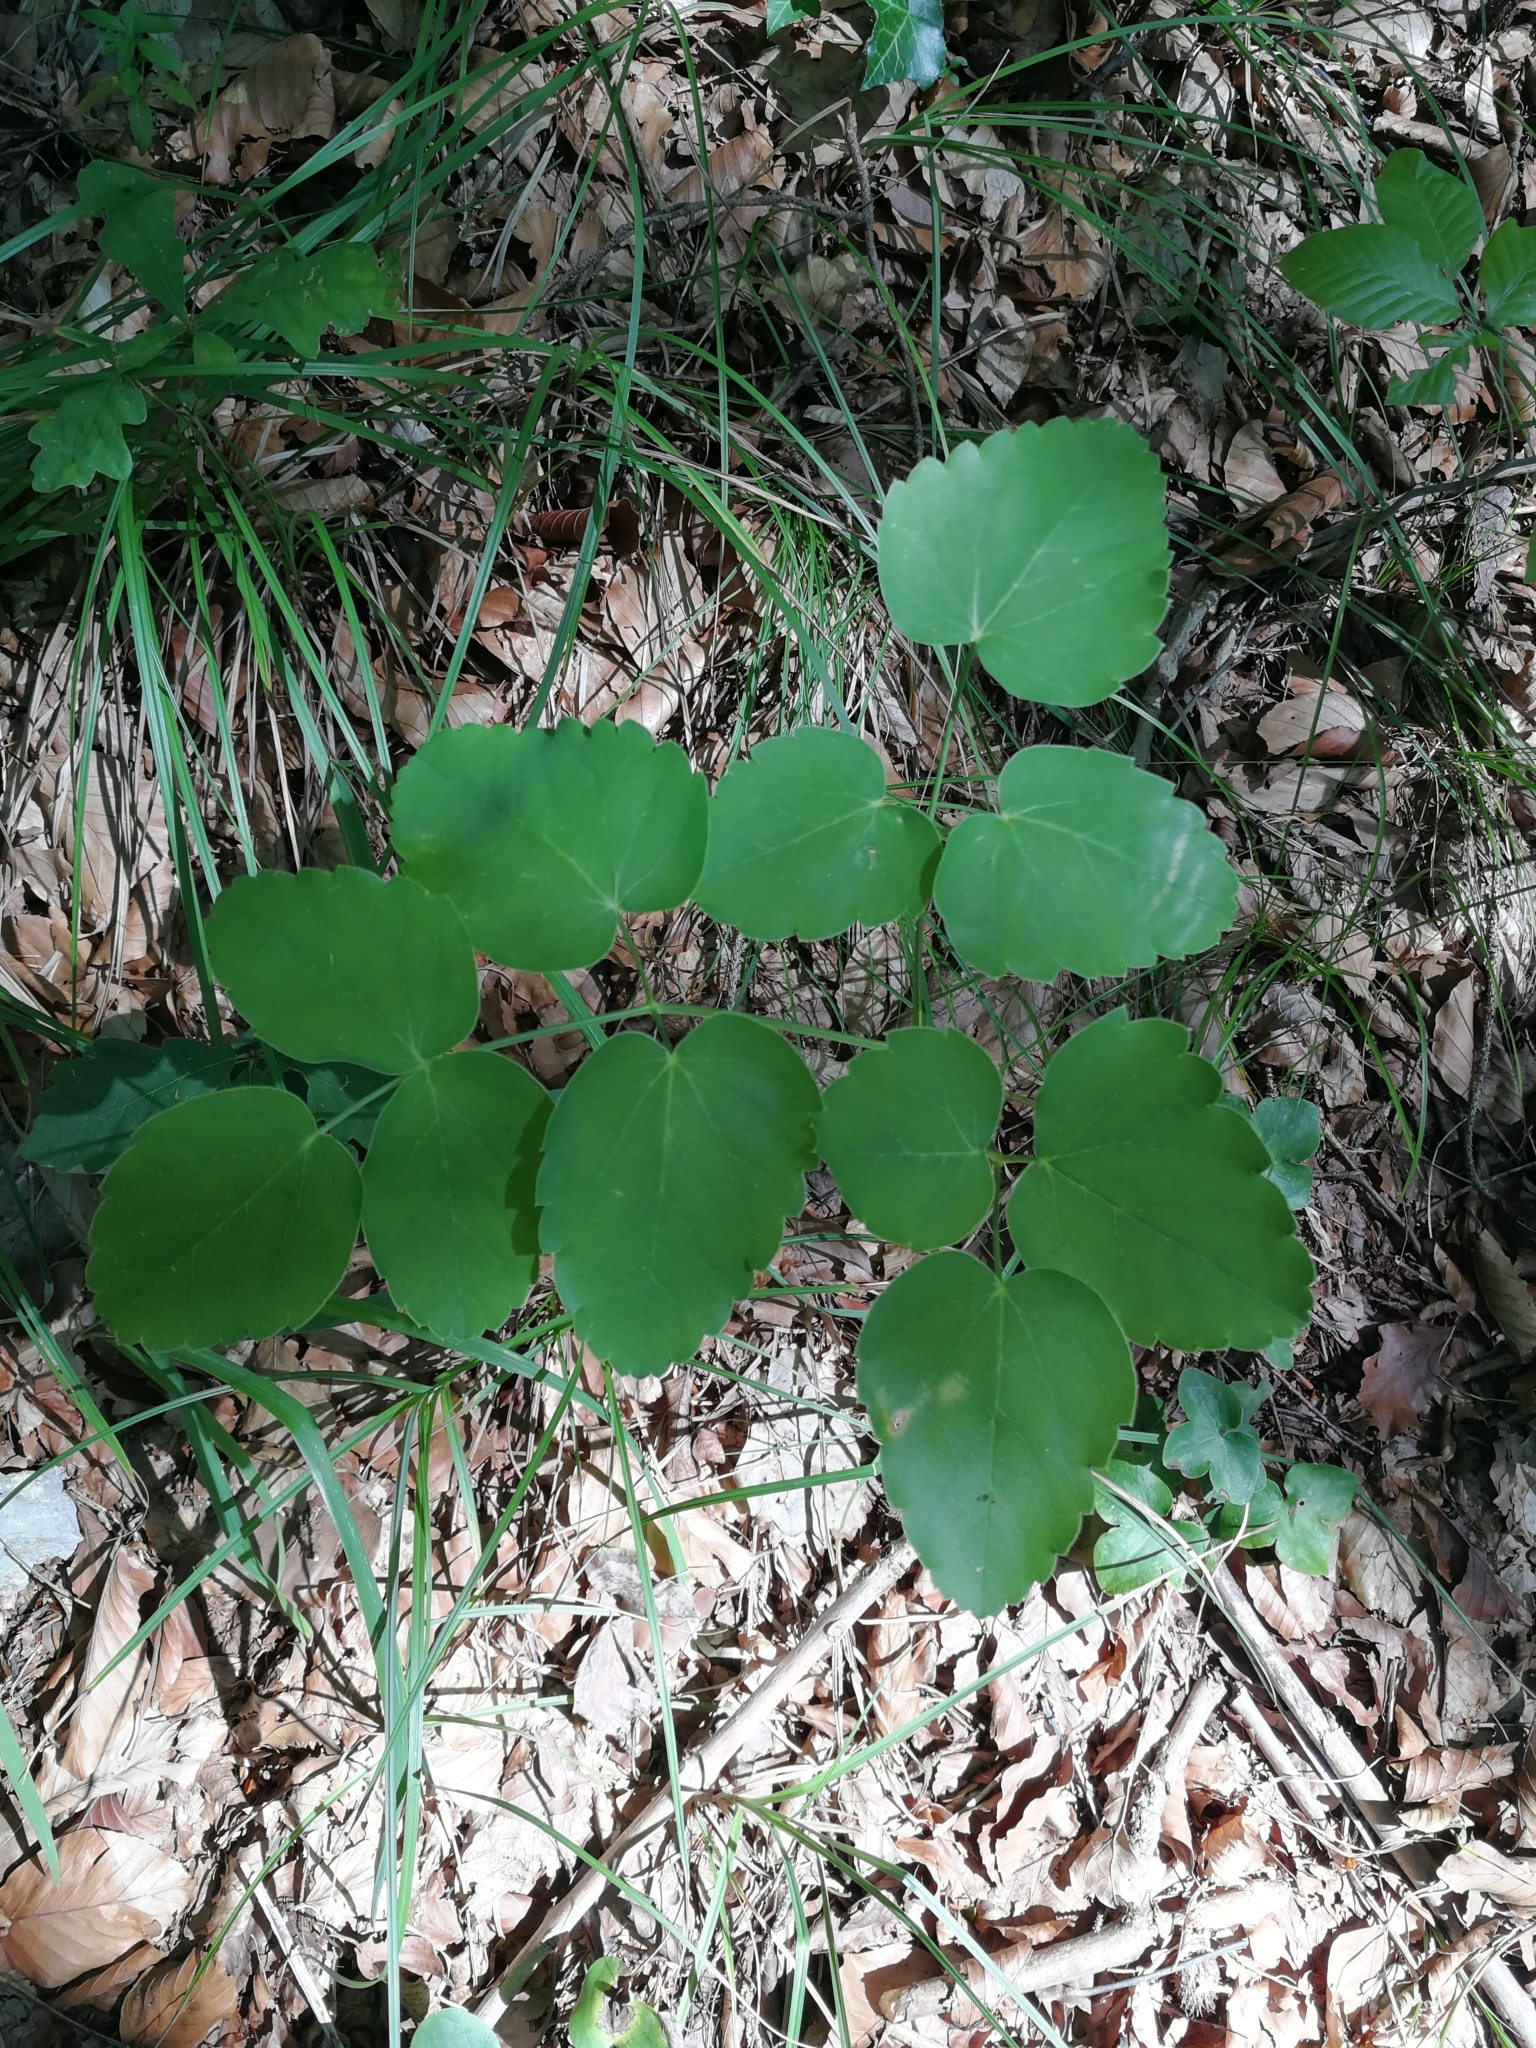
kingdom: Plantae
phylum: Tracheophyta
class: Magnoliopsida
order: Apiales
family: Apiaceae
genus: Laserpitium
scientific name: Laserpitium latifolium
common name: Broadleaf sermountain
